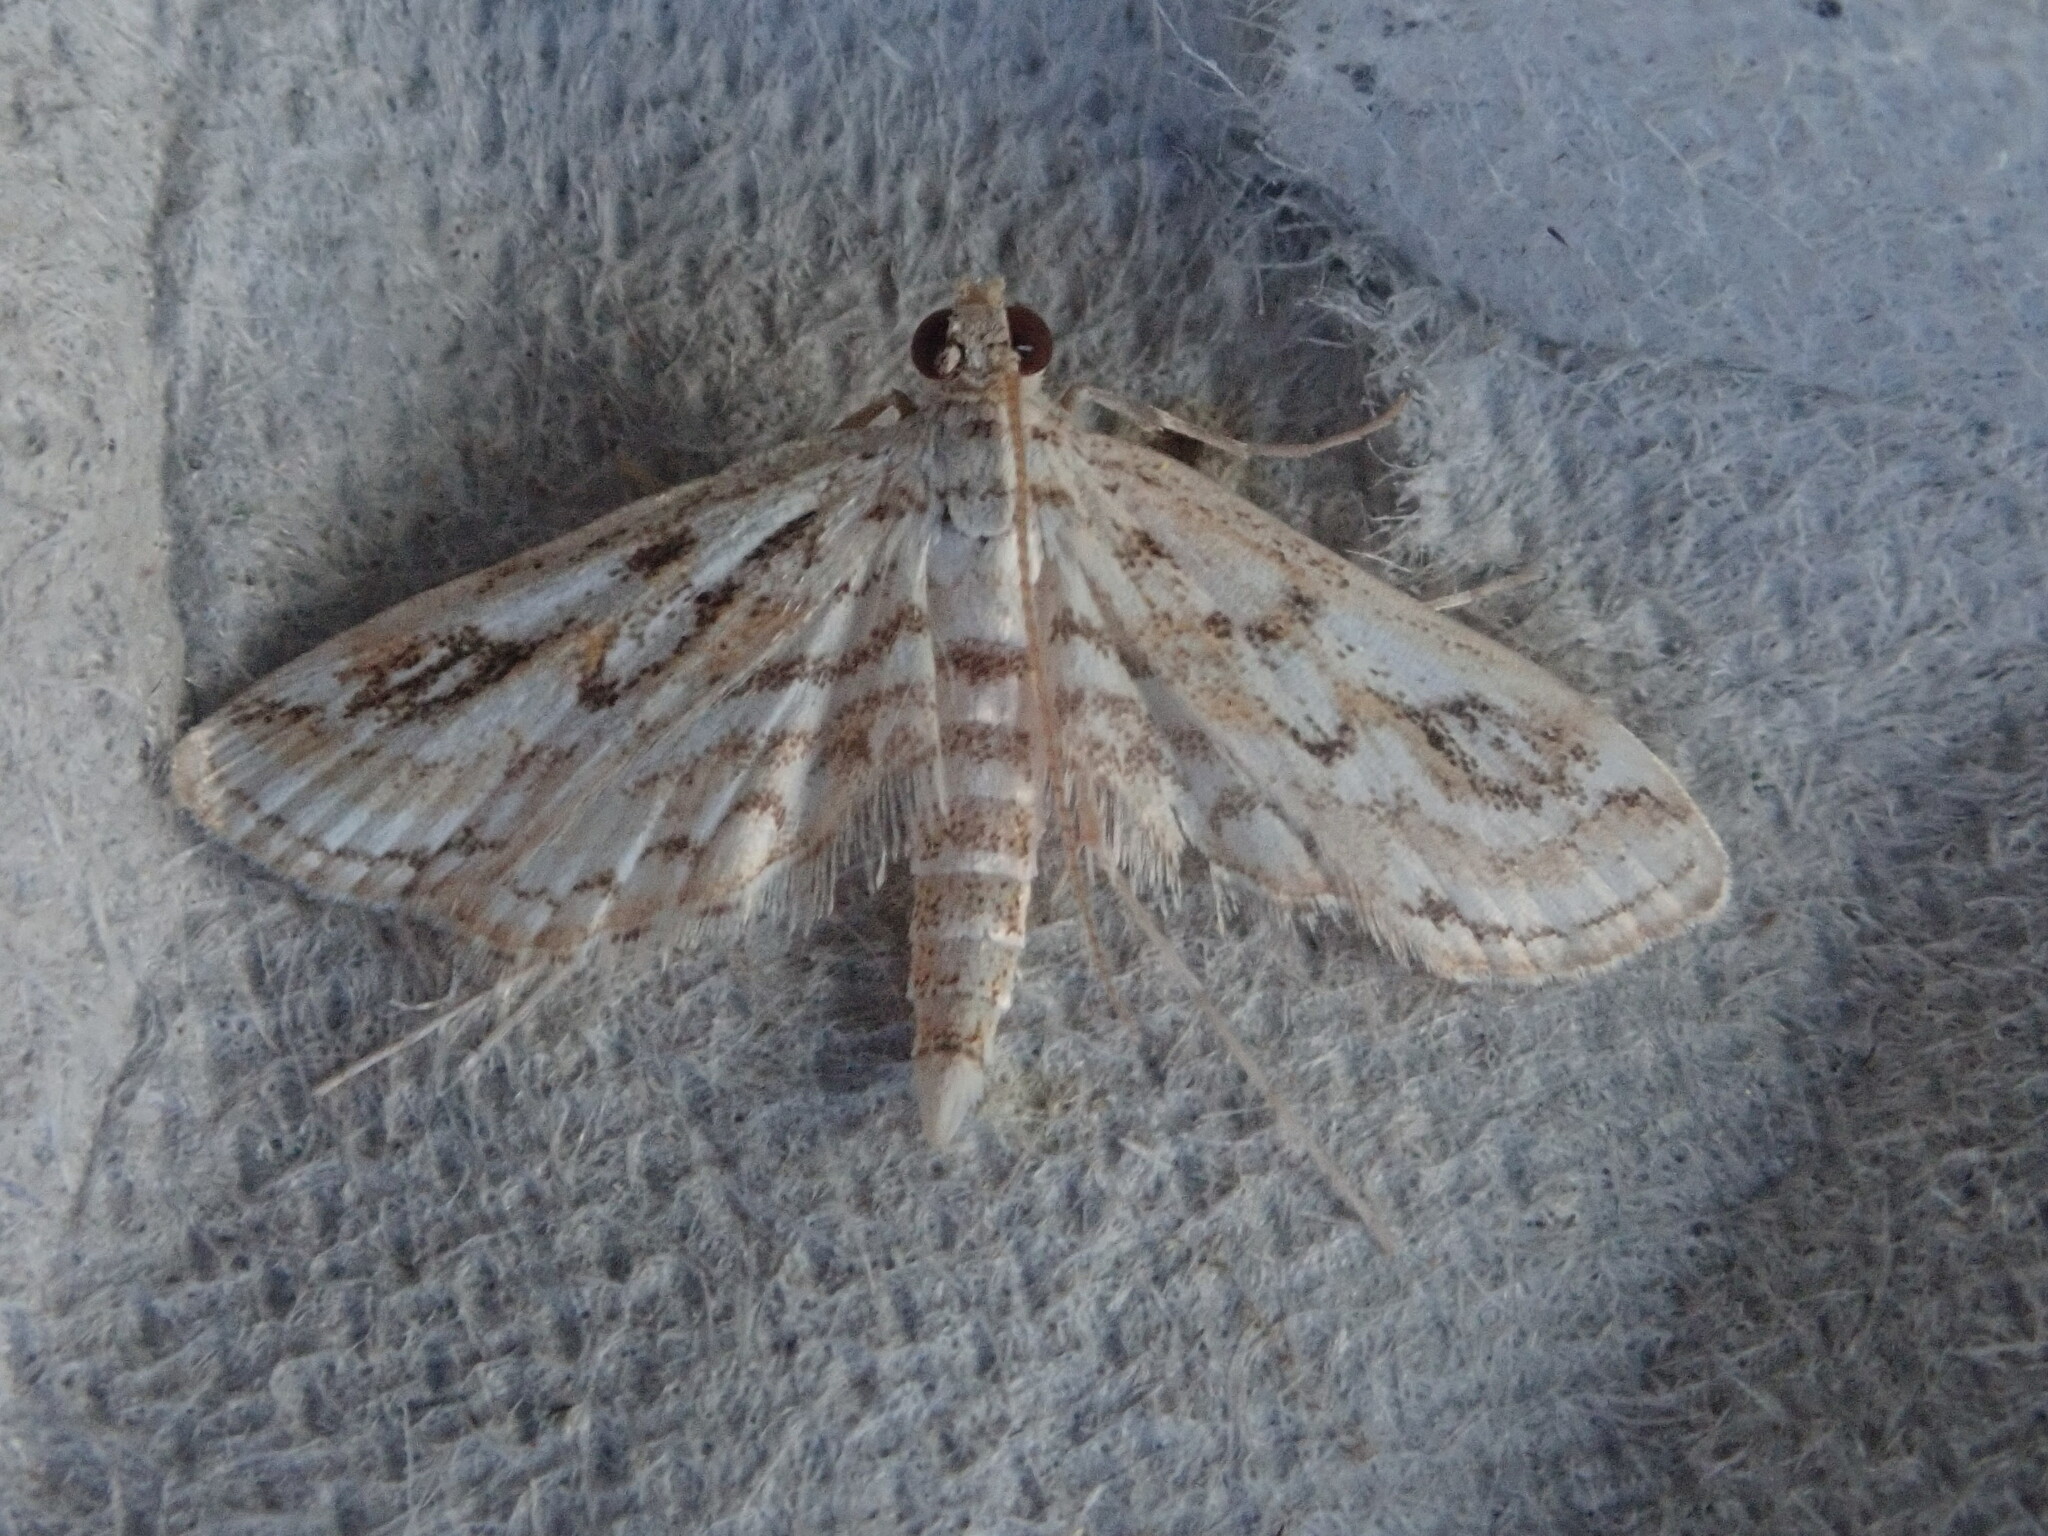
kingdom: Animalia
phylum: Arthropoda
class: Insecta
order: Lepidoptera
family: Crambidae
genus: Parapoynx
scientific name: Parapoynx allionealis
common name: Bladderwort casemaker
